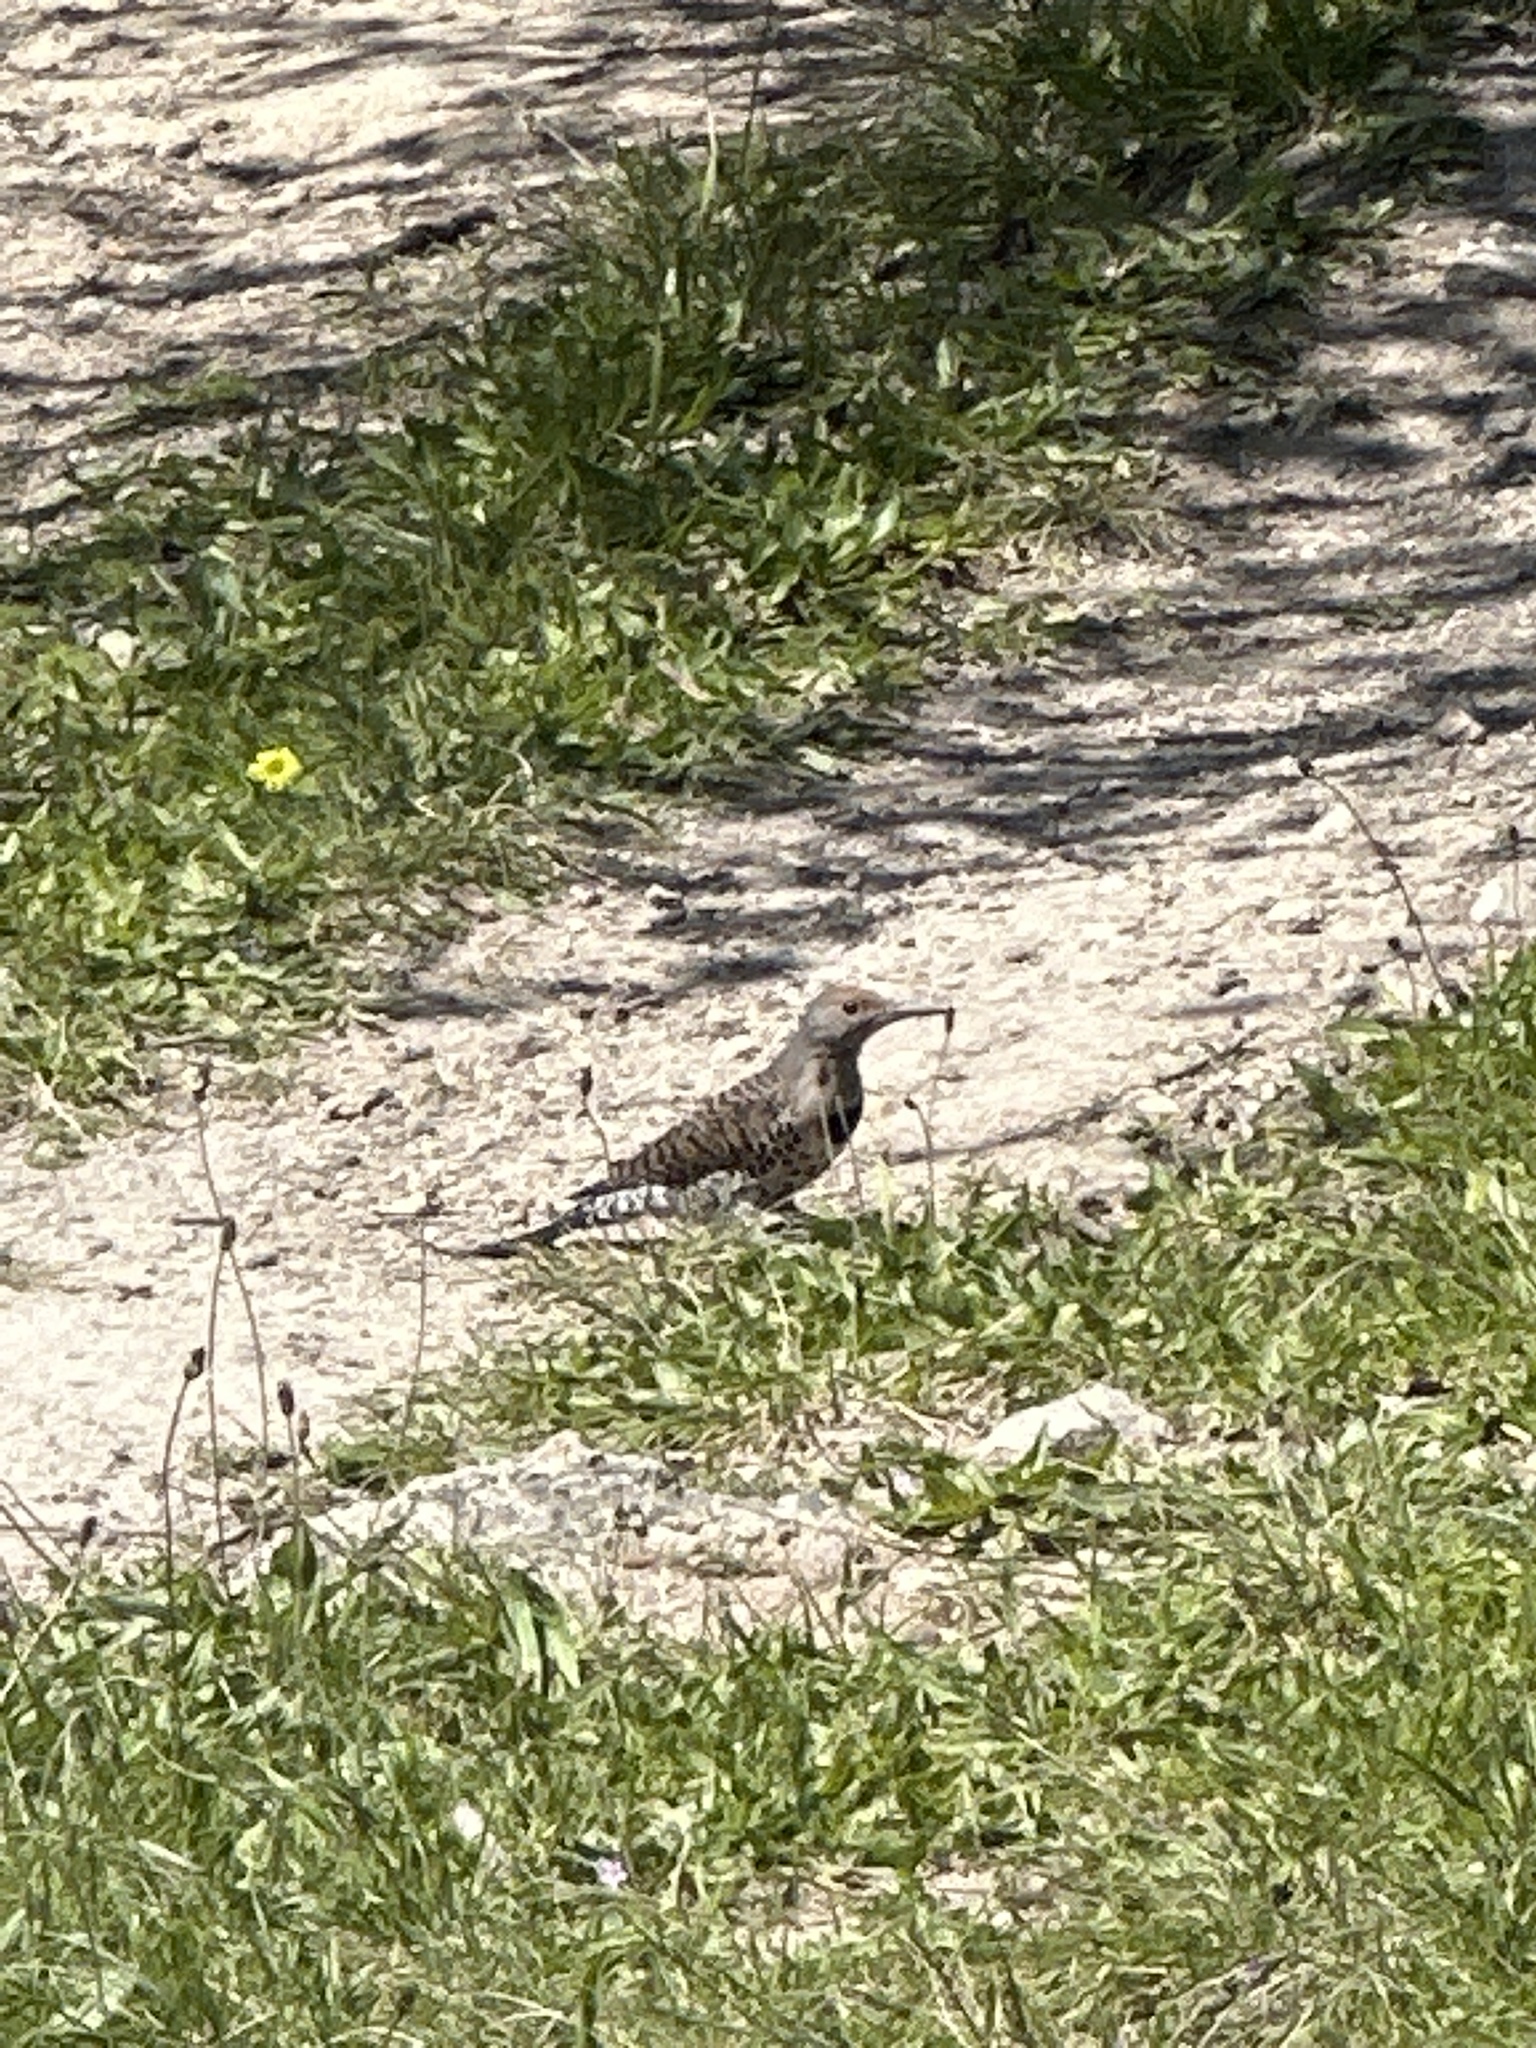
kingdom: Animalia
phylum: Chordata
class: Aves
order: Piciformes
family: Picidae
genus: Colaptes
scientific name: Colaptes auratus
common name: Northern flicker
